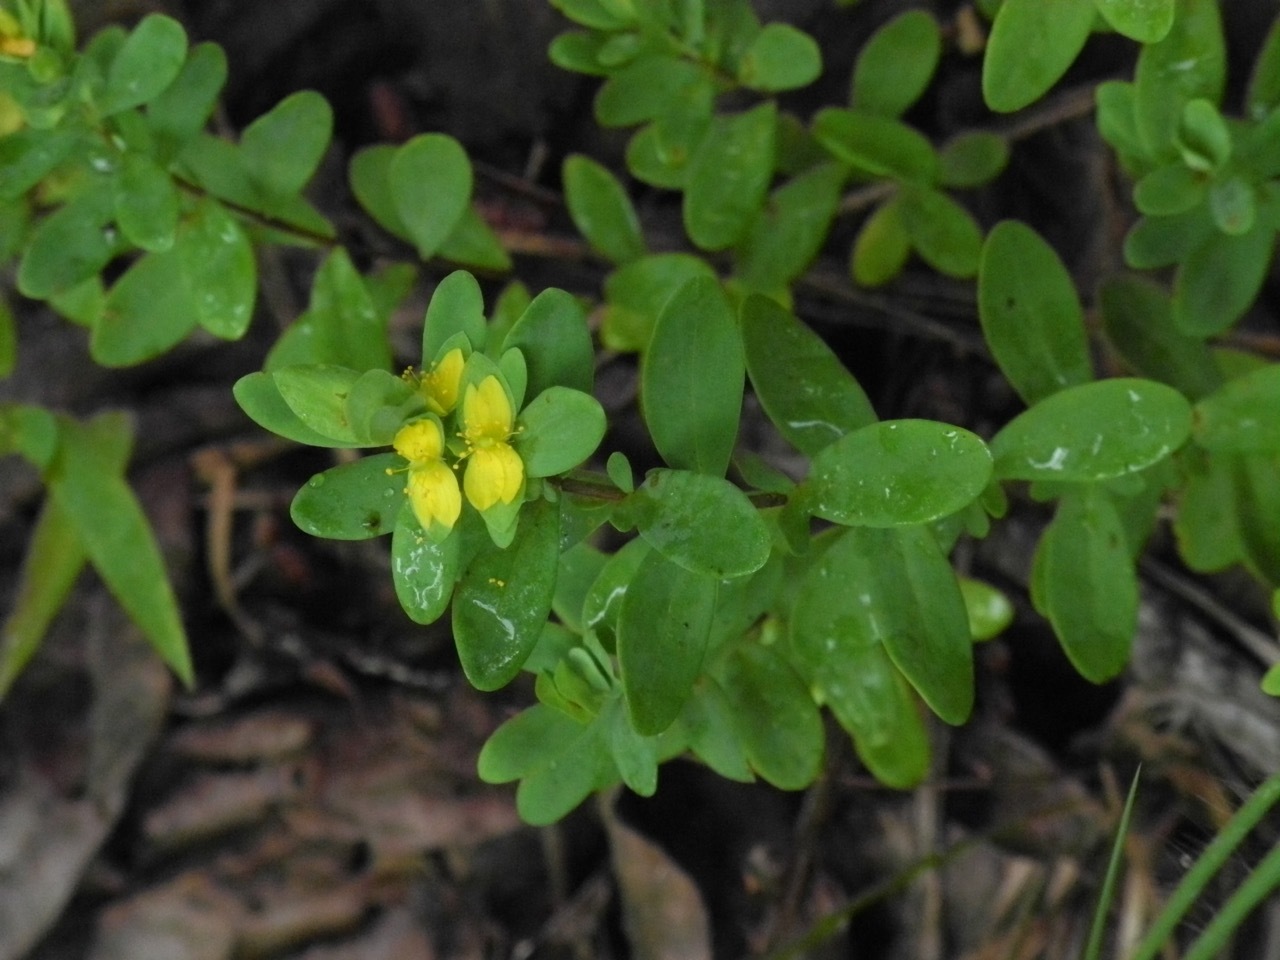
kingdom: Plantae
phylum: Tracheophyta
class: Magnoliopsida
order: Malpighiales
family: Hypericaceae
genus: Hypericum
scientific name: Hypericum hypericoides
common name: St. andrew's cross
